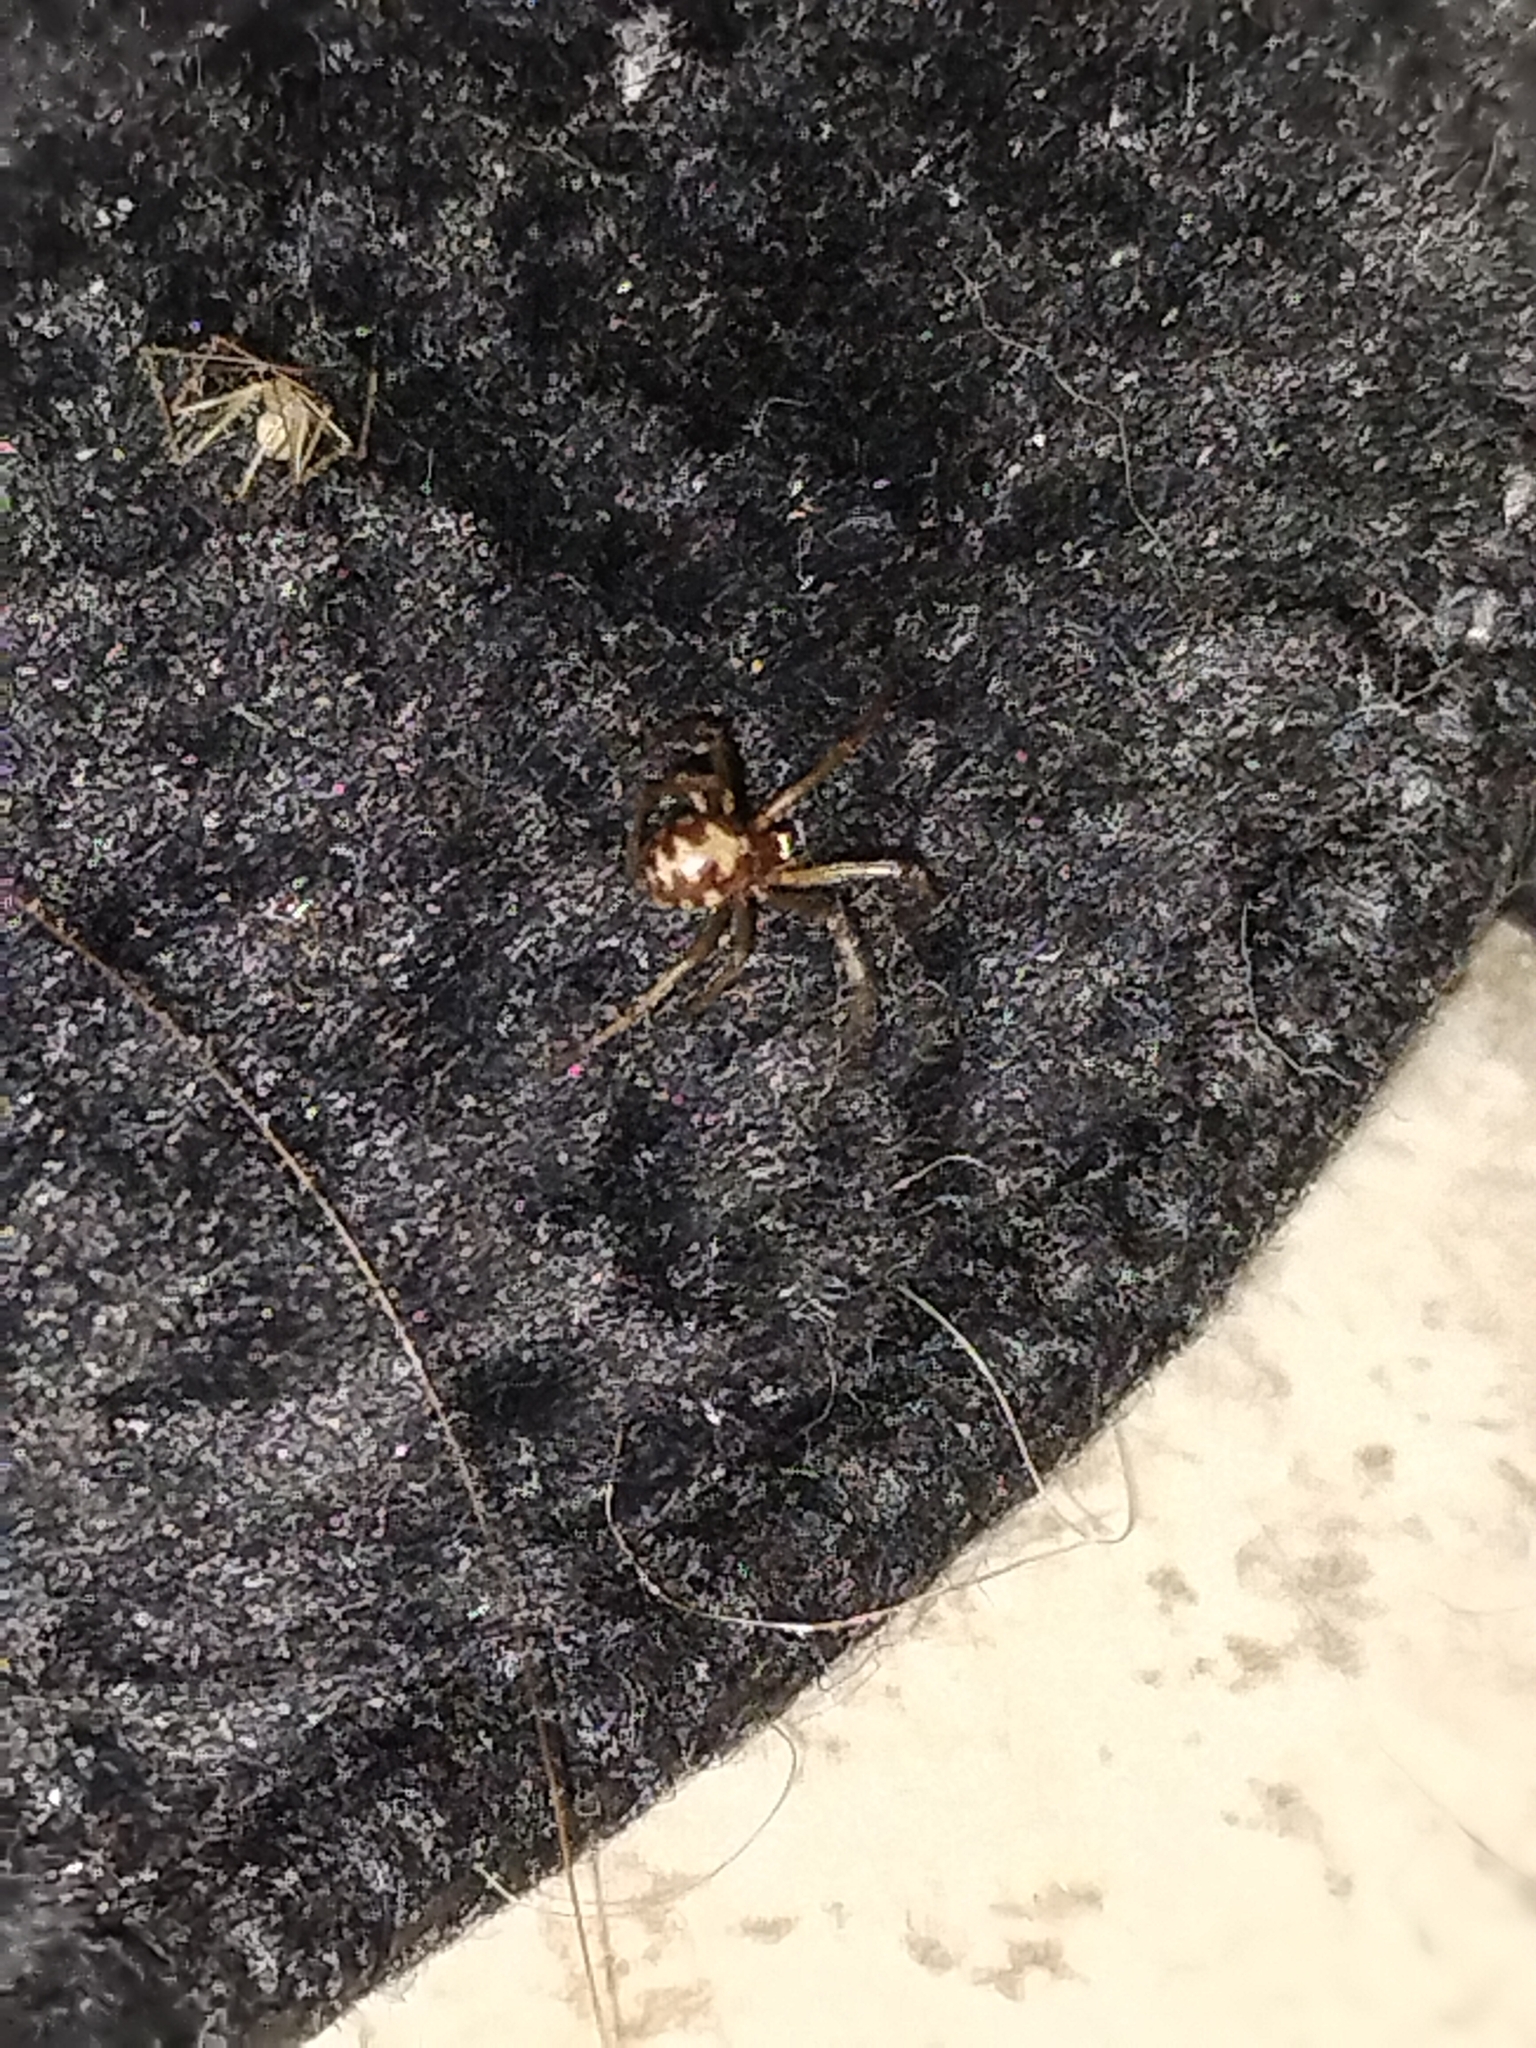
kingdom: Animalia
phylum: Arthropoda
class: Arachnida
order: Araneae
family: Theridiidae
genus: Steatoda
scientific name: Steatoda triangulosa
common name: Triangulate bud spider
